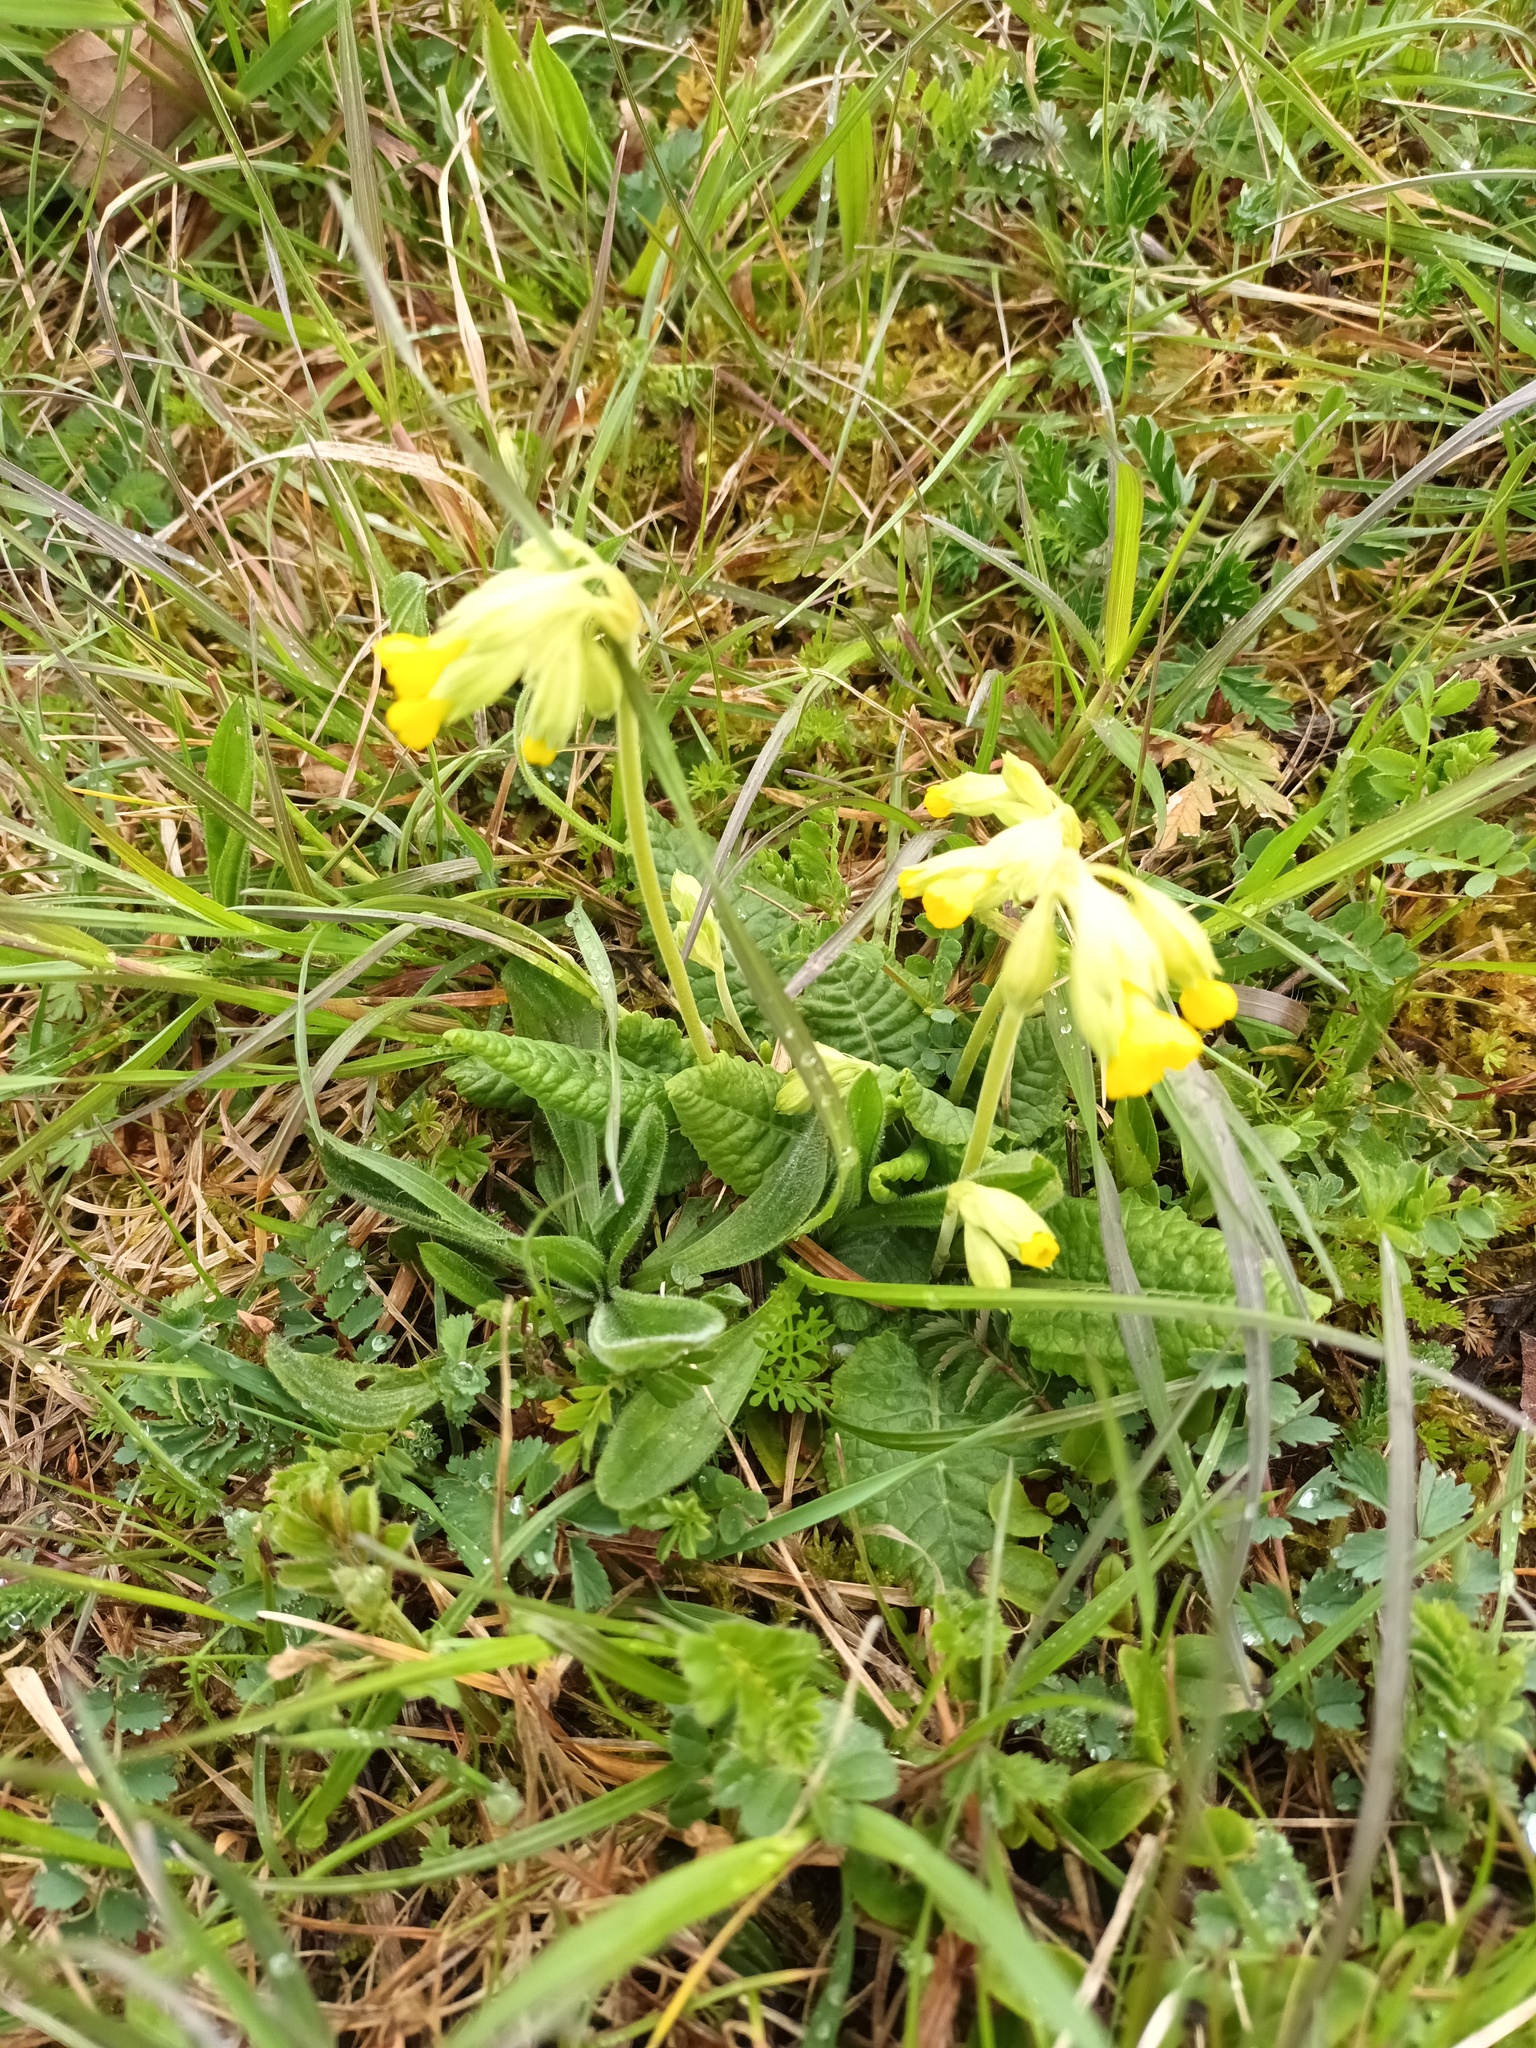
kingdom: Plantae
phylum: Tracheophyta
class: Magnoliopsida
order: Ericales
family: Primulaceae
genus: Primula
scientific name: Primula veris
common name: Cowslip
